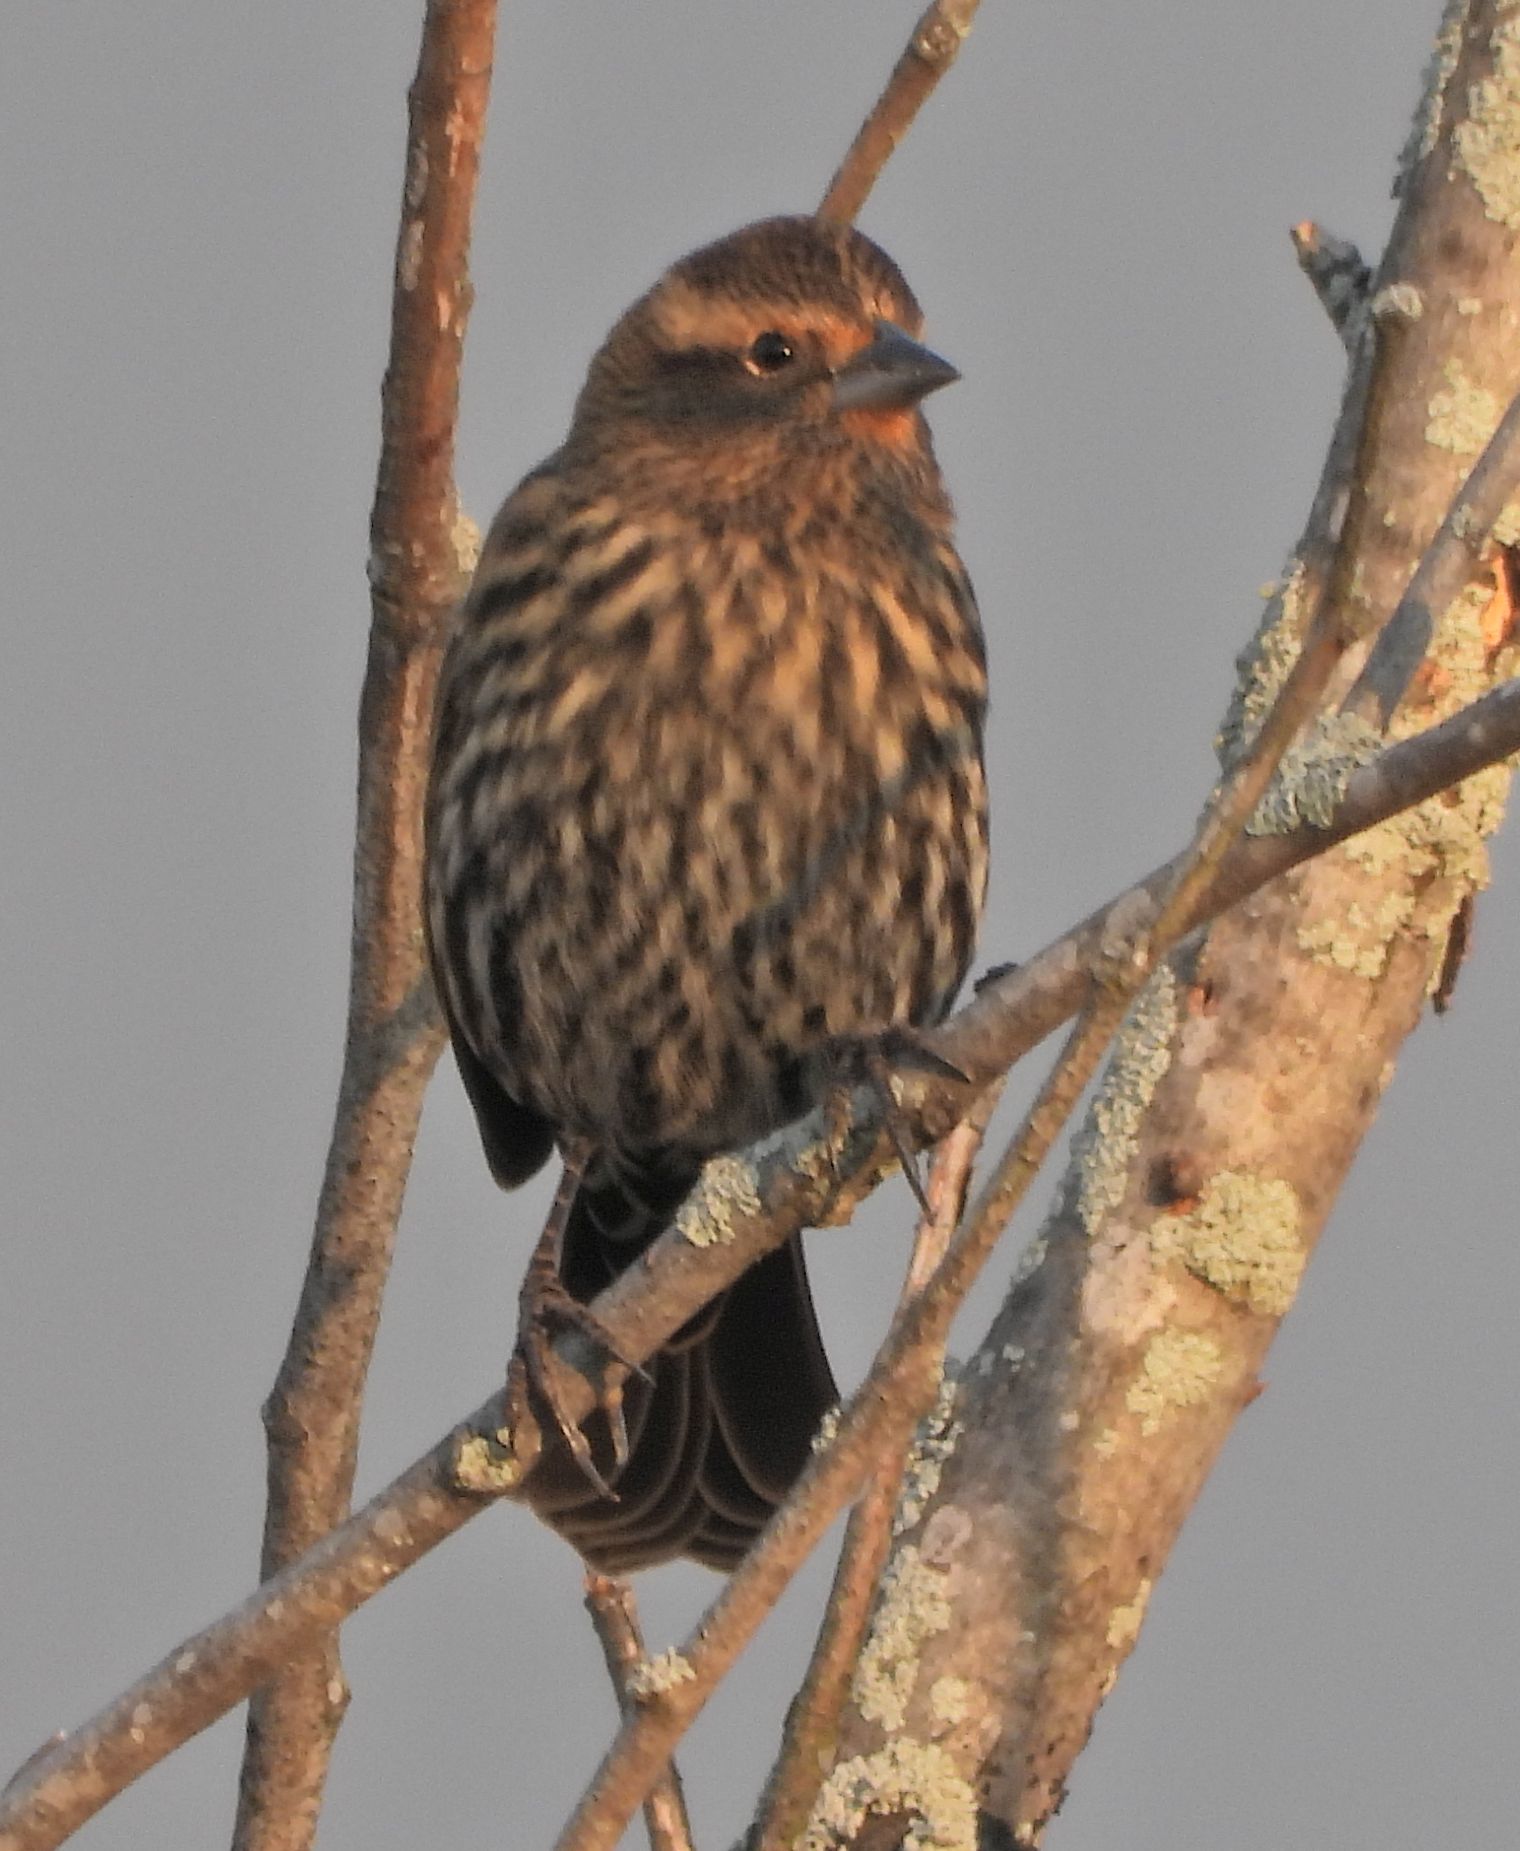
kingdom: Animalia
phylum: Chordata
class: Aves
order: Passeriformes
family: Icteridae
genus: Agelaius
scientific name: Agelaius phoeniceus
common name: Red-winged blackbird
